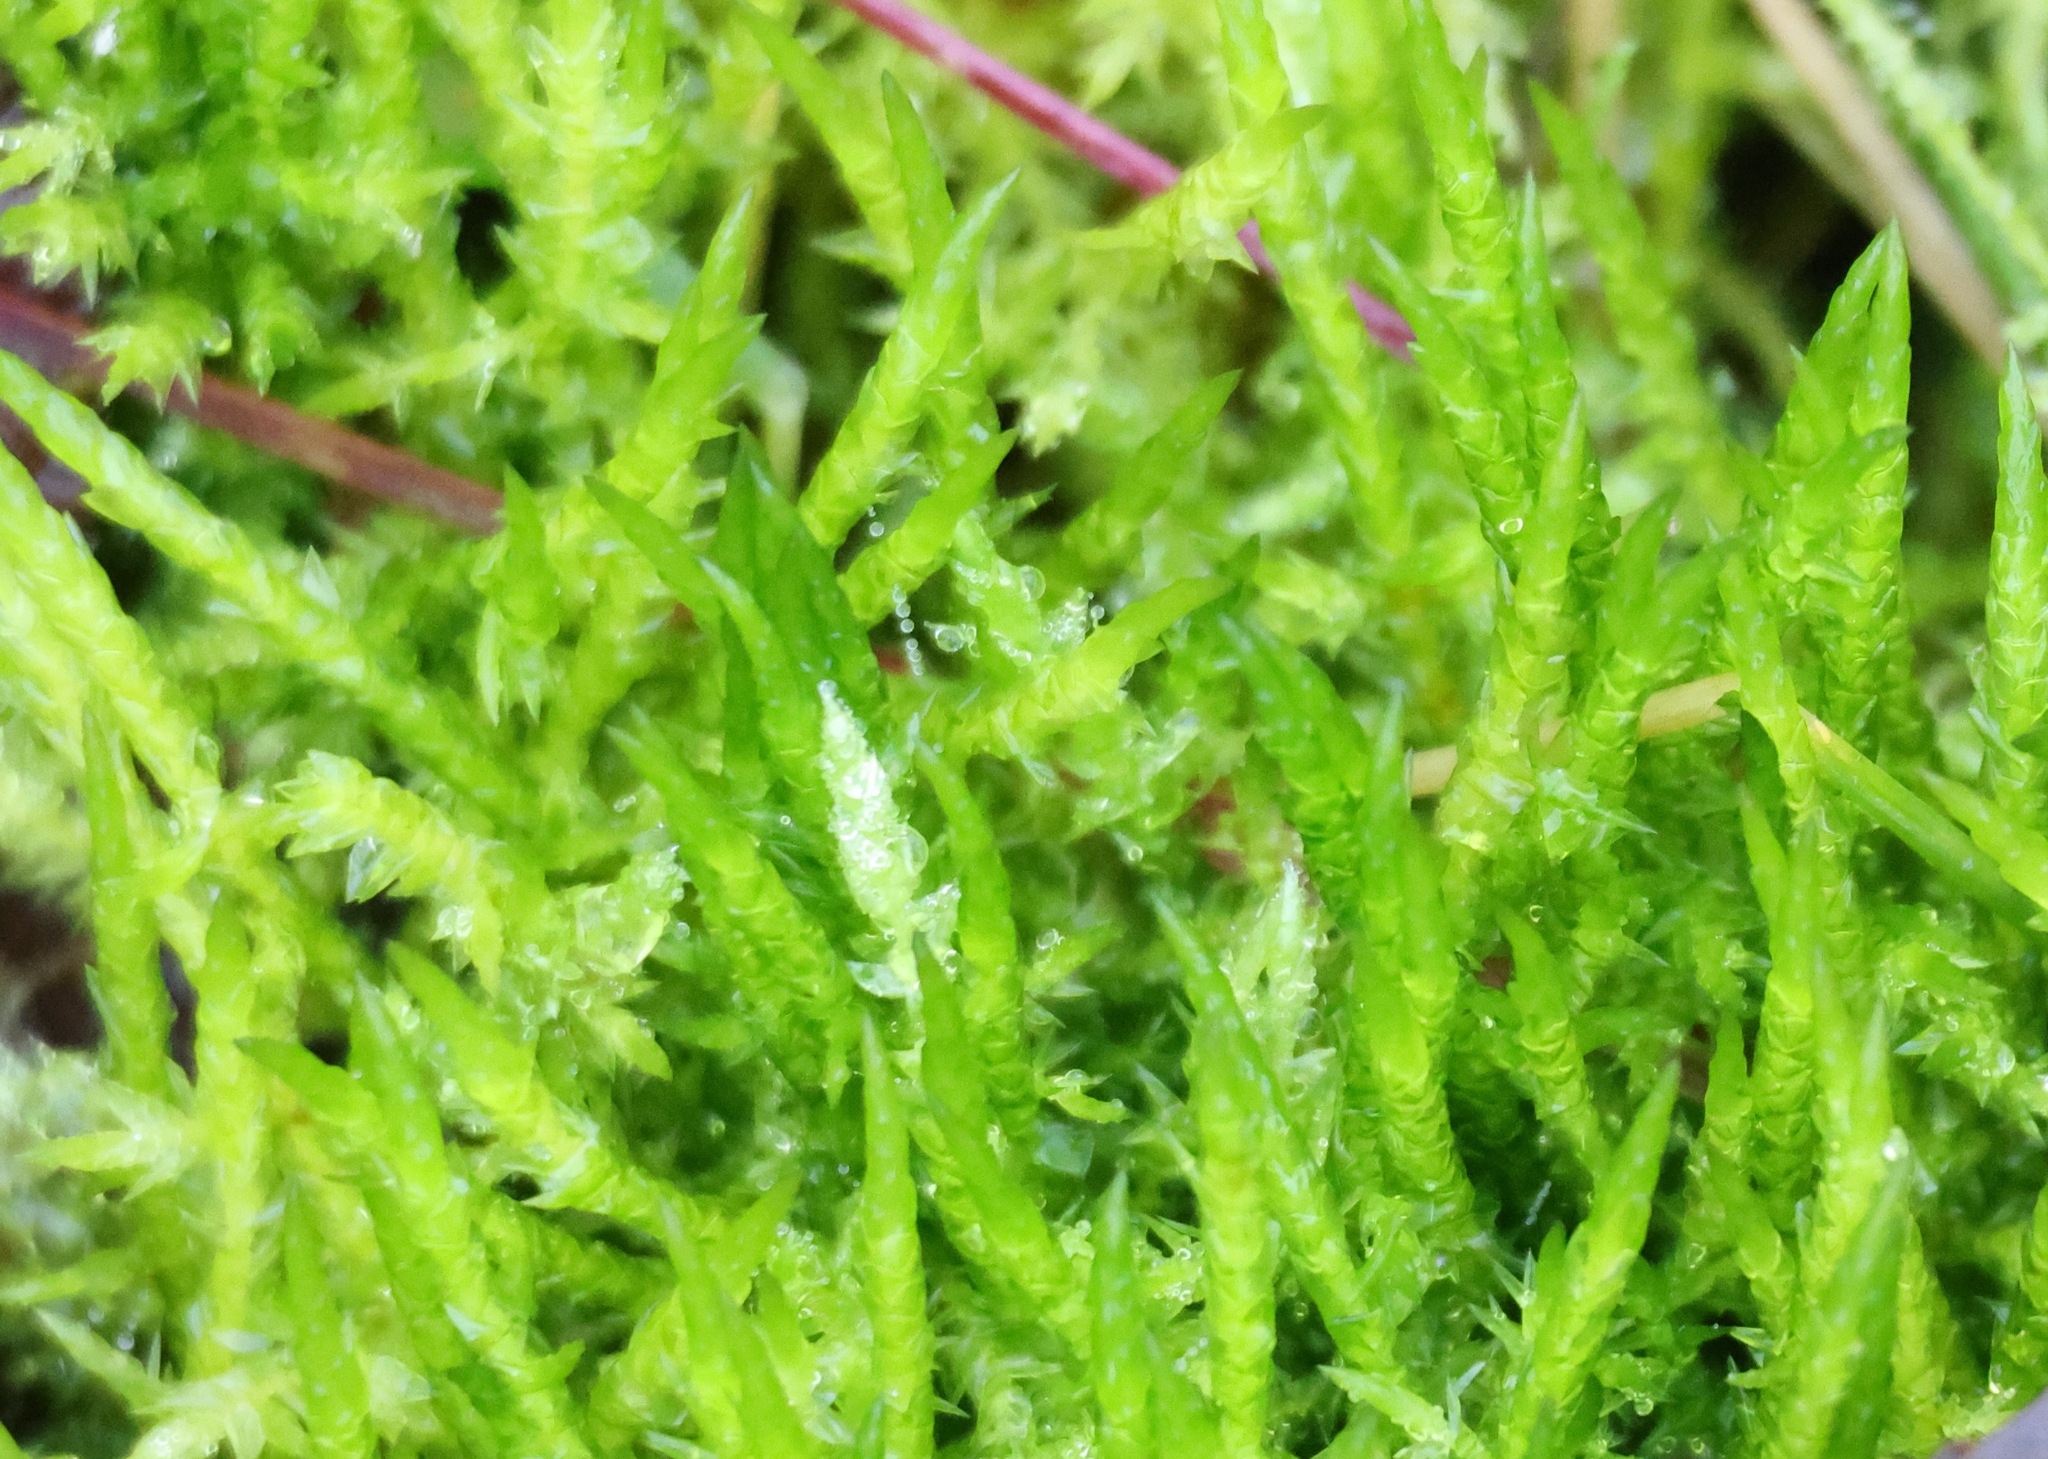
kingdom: Plantae
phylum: Bryophyta
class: Bryopsida
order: Hypnales
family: Pylaisiaceae
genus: Calliergonella
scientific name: Calliergonella cuspidata
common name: Common large wetland moss
